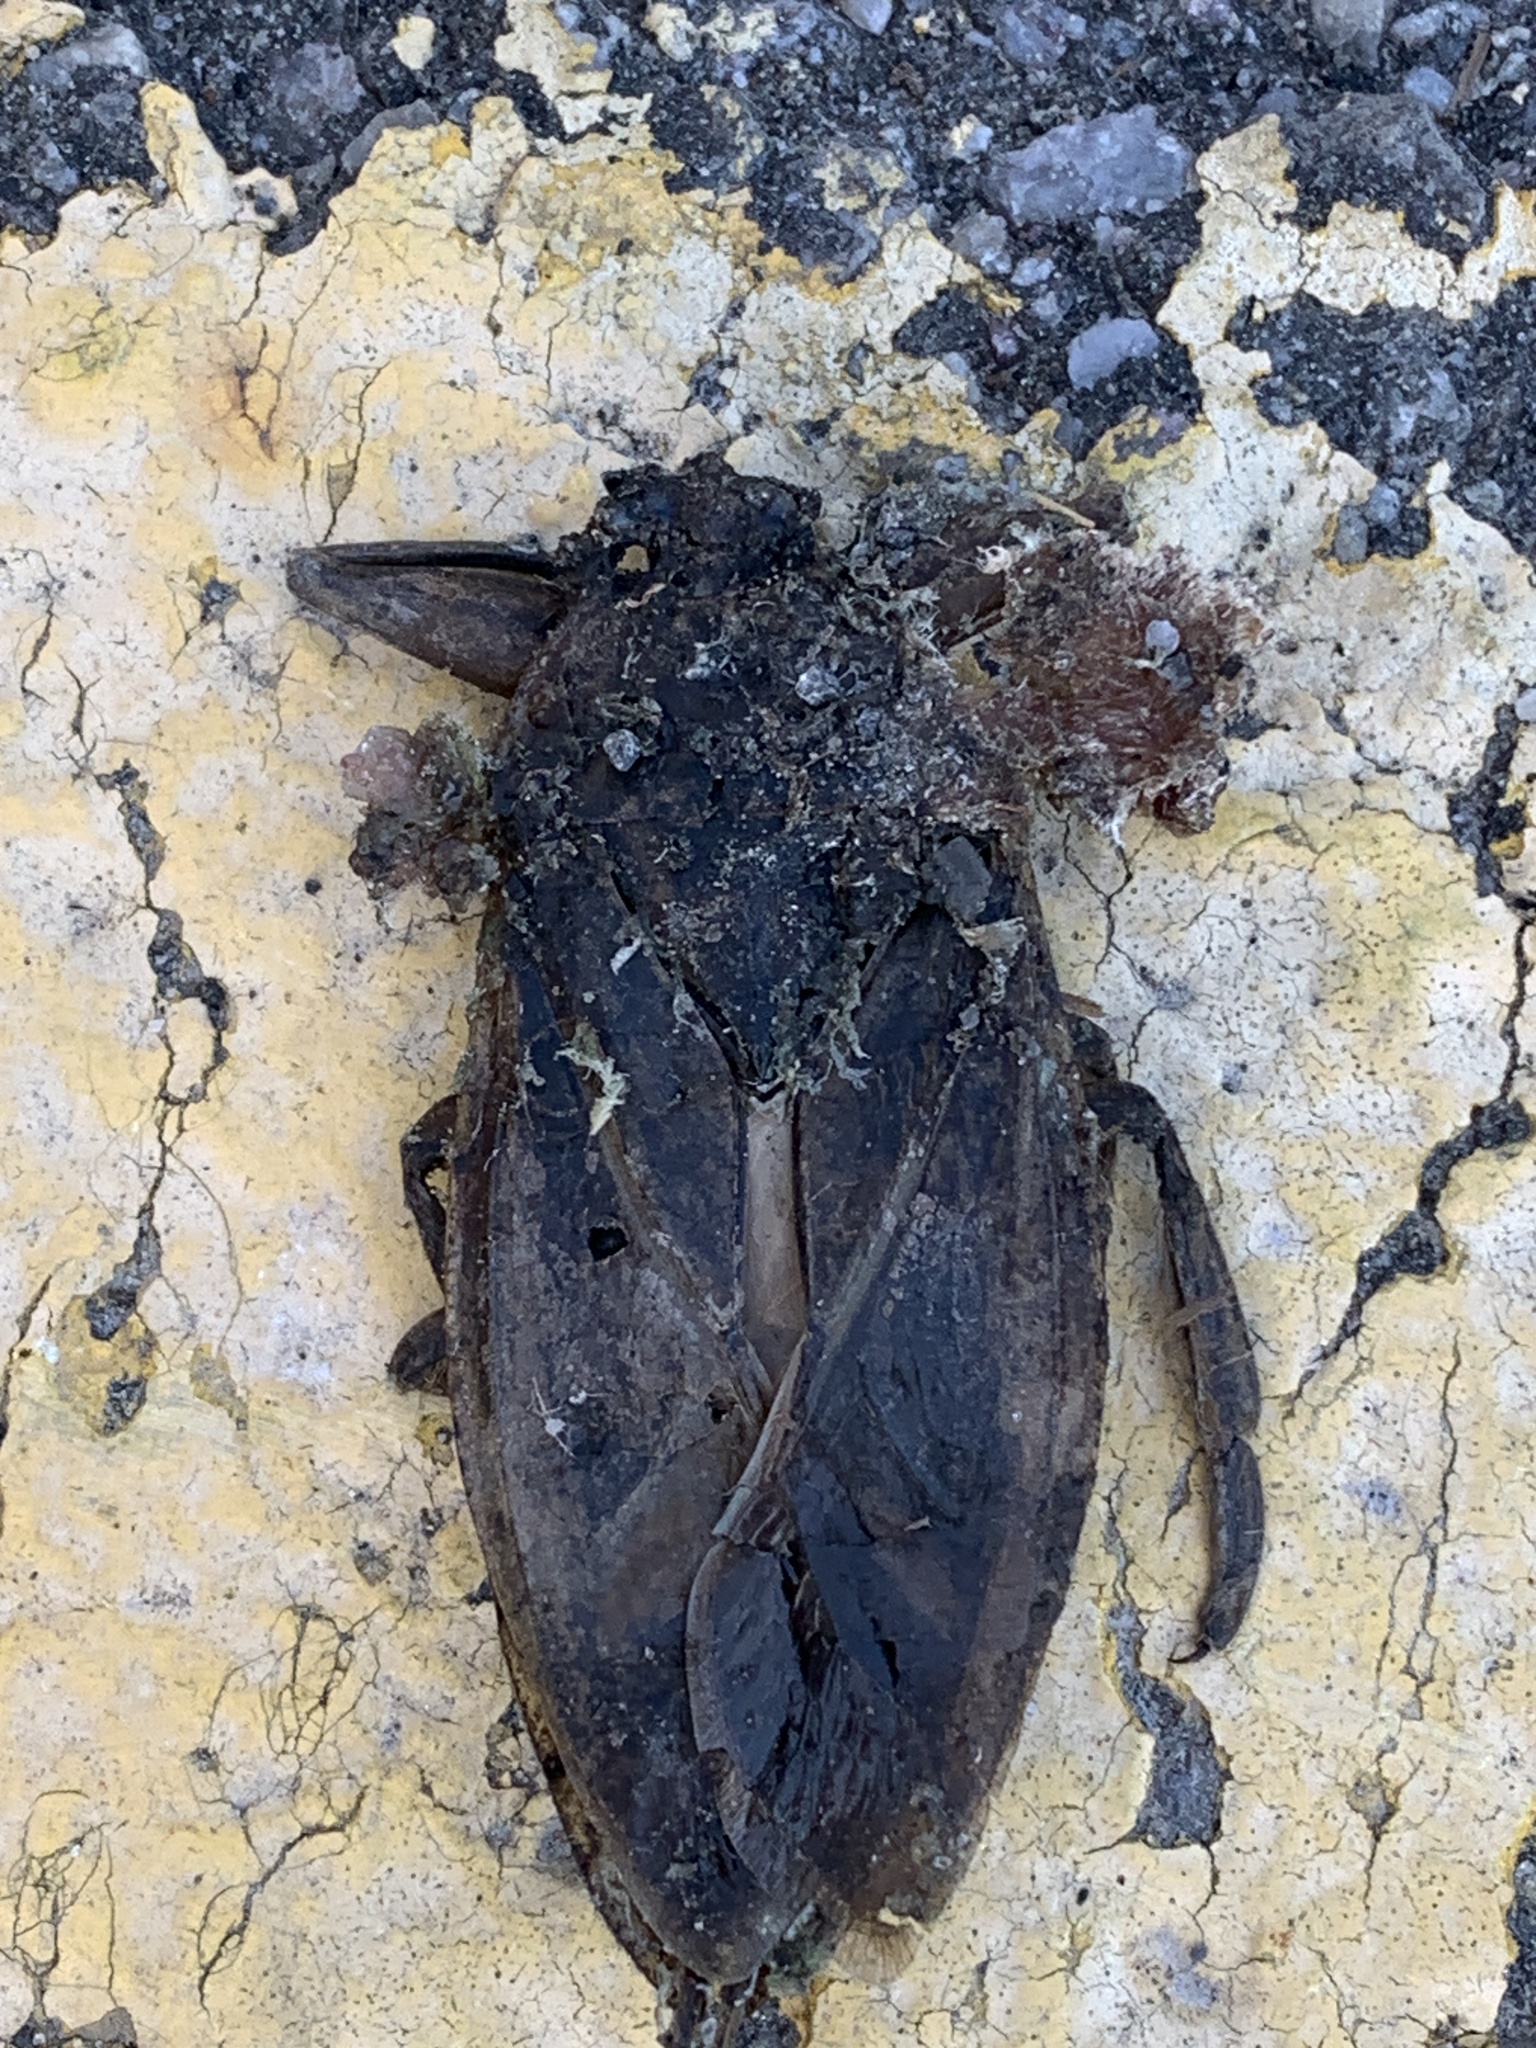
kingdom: Animalia
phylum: Arthropoda
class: Insecta
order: Hemiptera
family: Belostomatidae
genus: Lethocerus
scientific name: Lethocerus americanus
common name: Giant water bug
